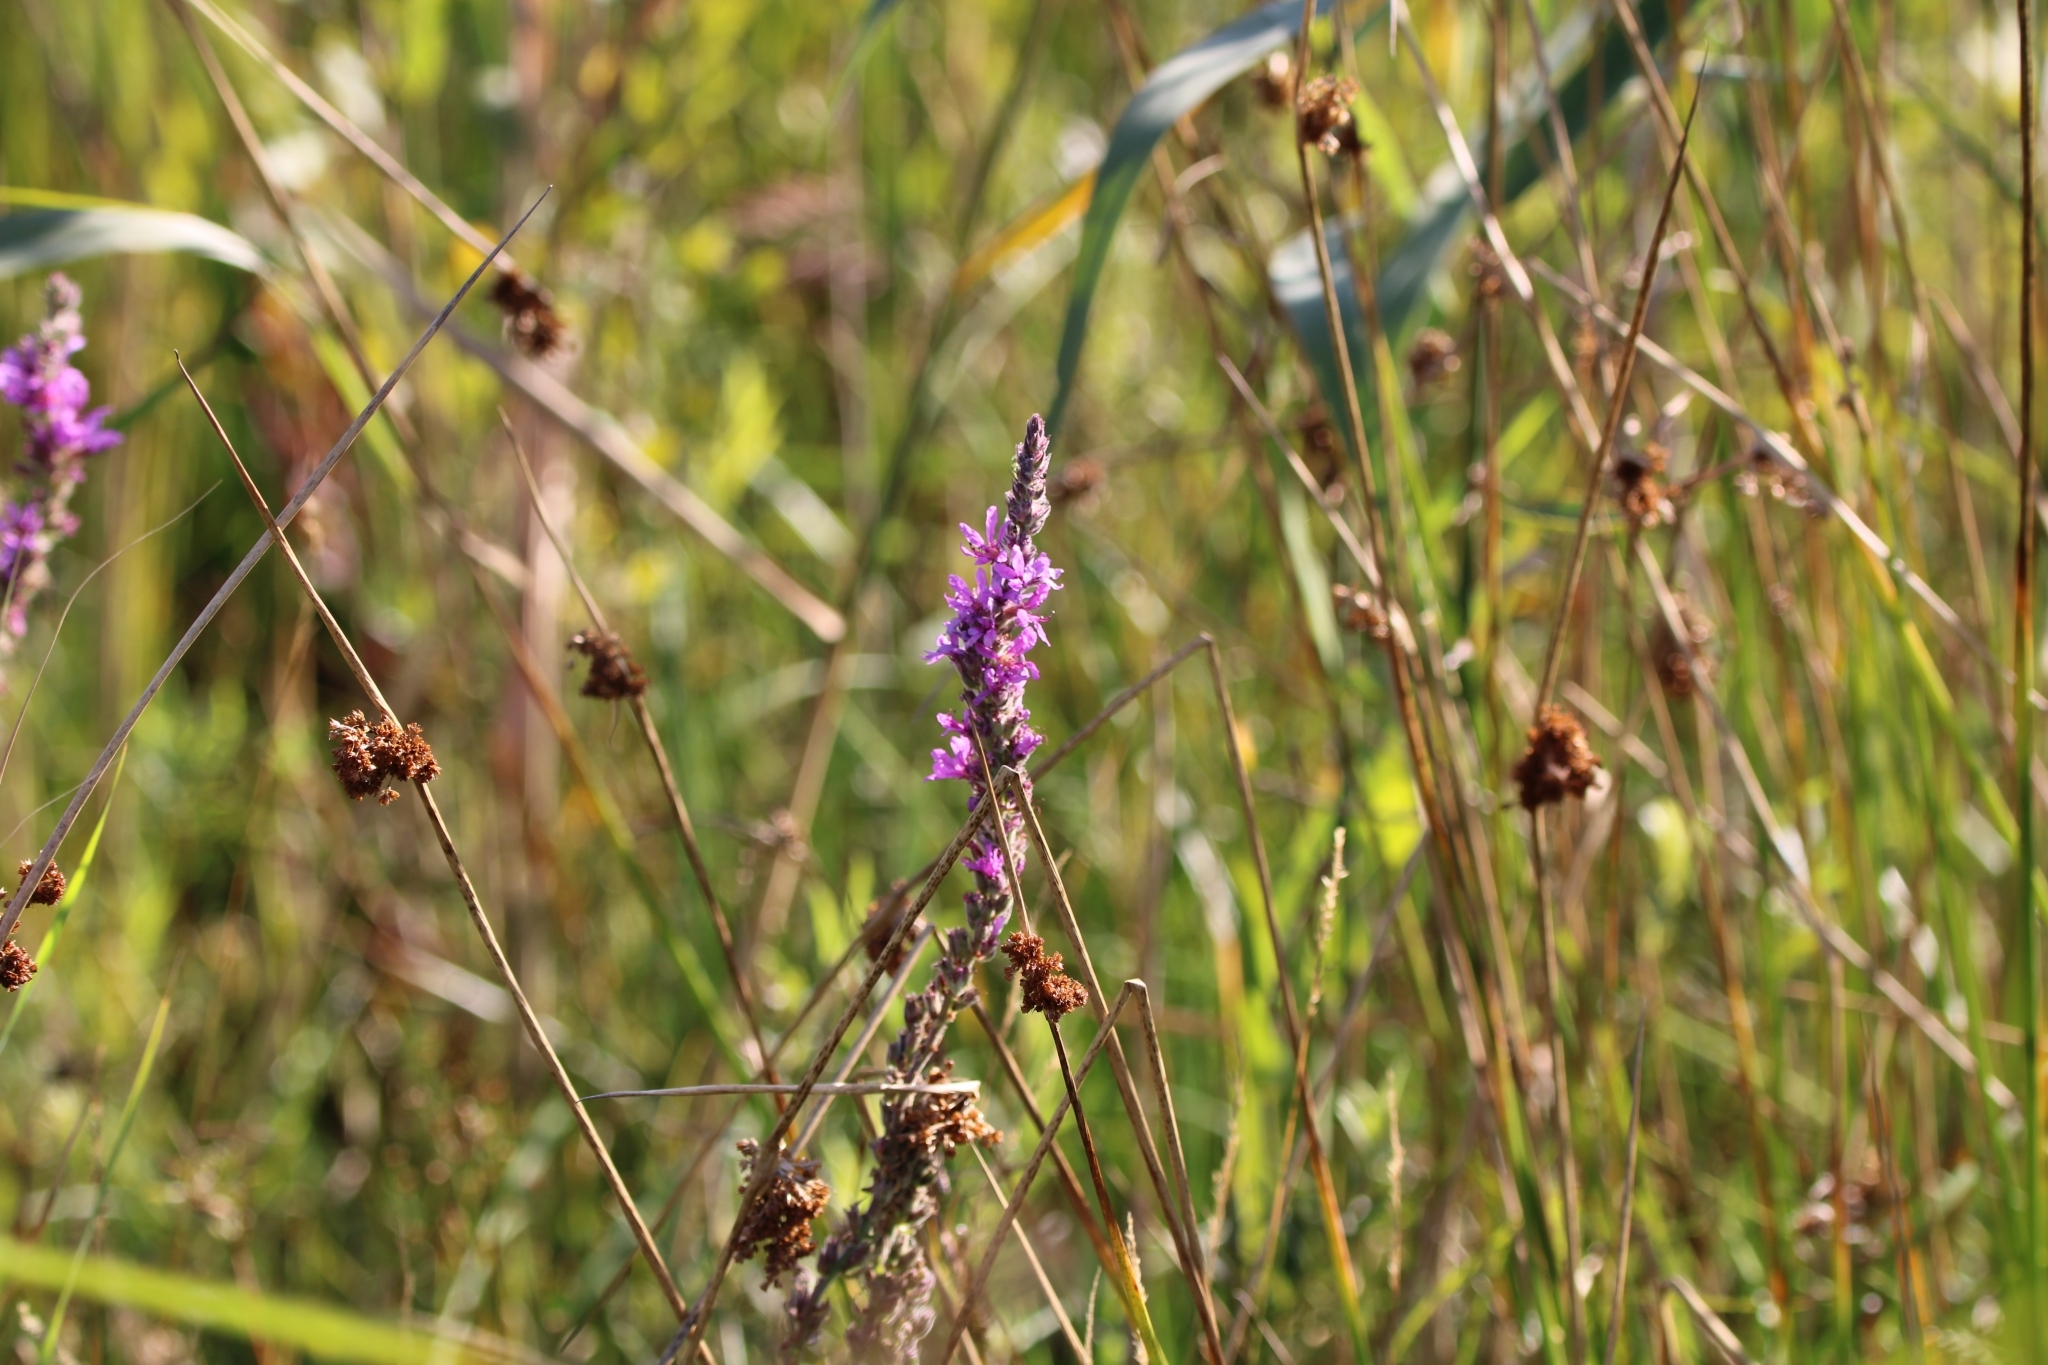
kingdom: Plantae
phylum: Tracheophyta
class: Magnoliopsida
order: Myrtales
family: Lythraceae
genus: Lythrum
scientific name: Lythrum salicaria
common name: Purple loosestrife
